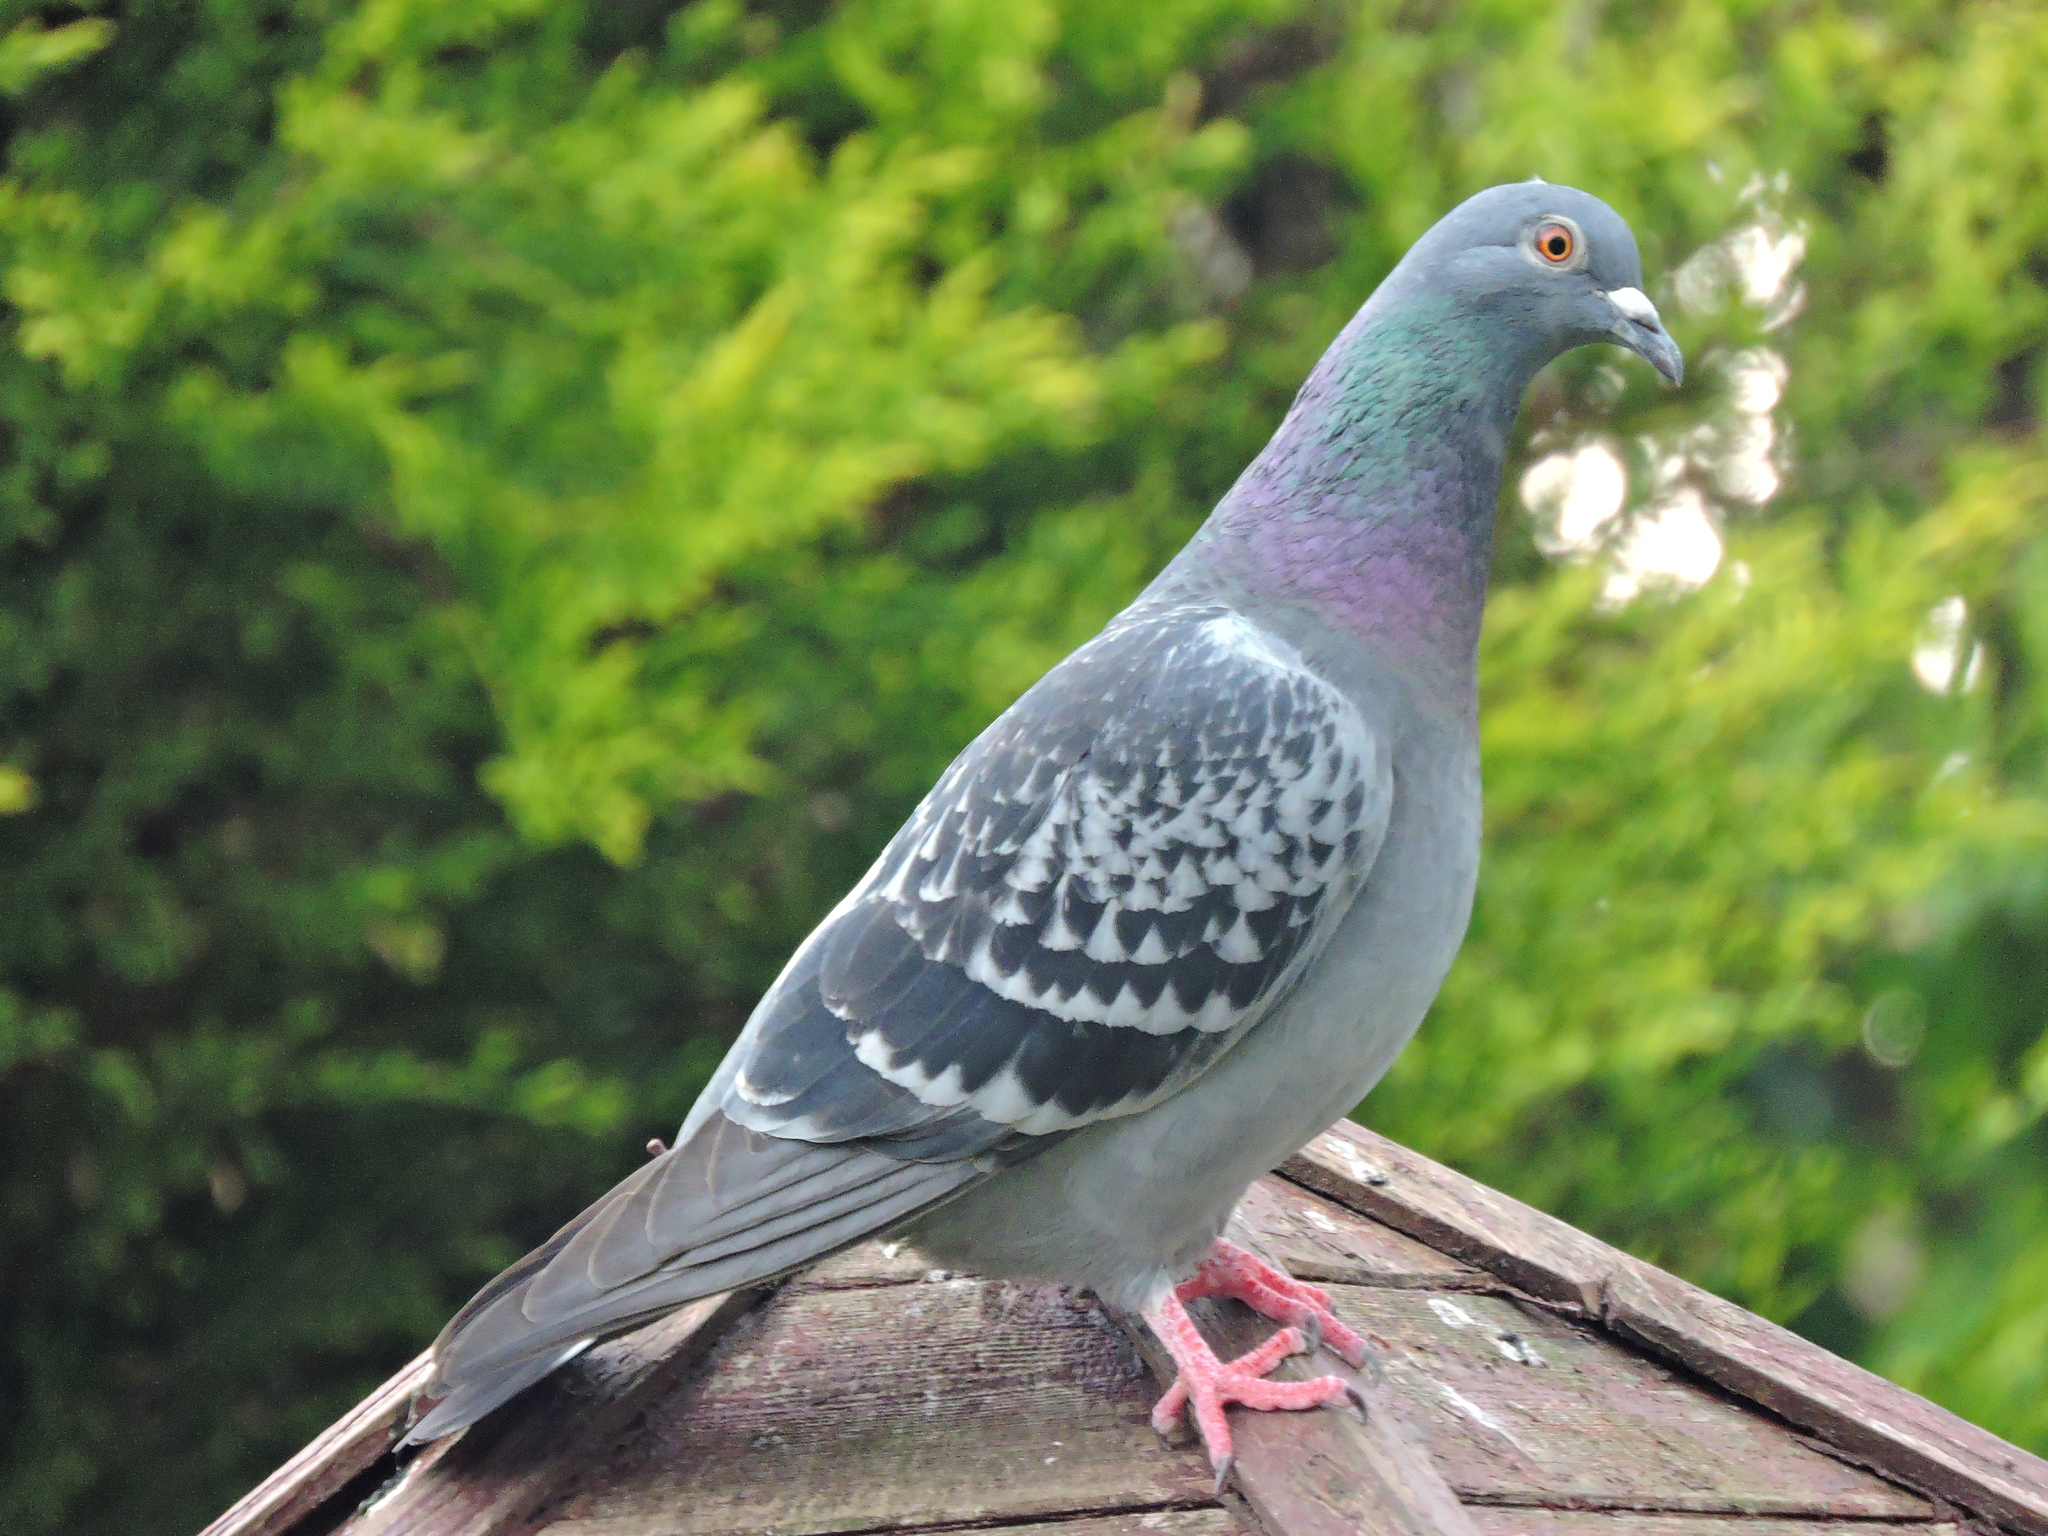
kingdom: Animalia
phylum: Chordata
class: Aves
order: Columbiformes
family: Columbidae
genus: Columba
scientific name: Columba livia
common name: Rock pigeon
